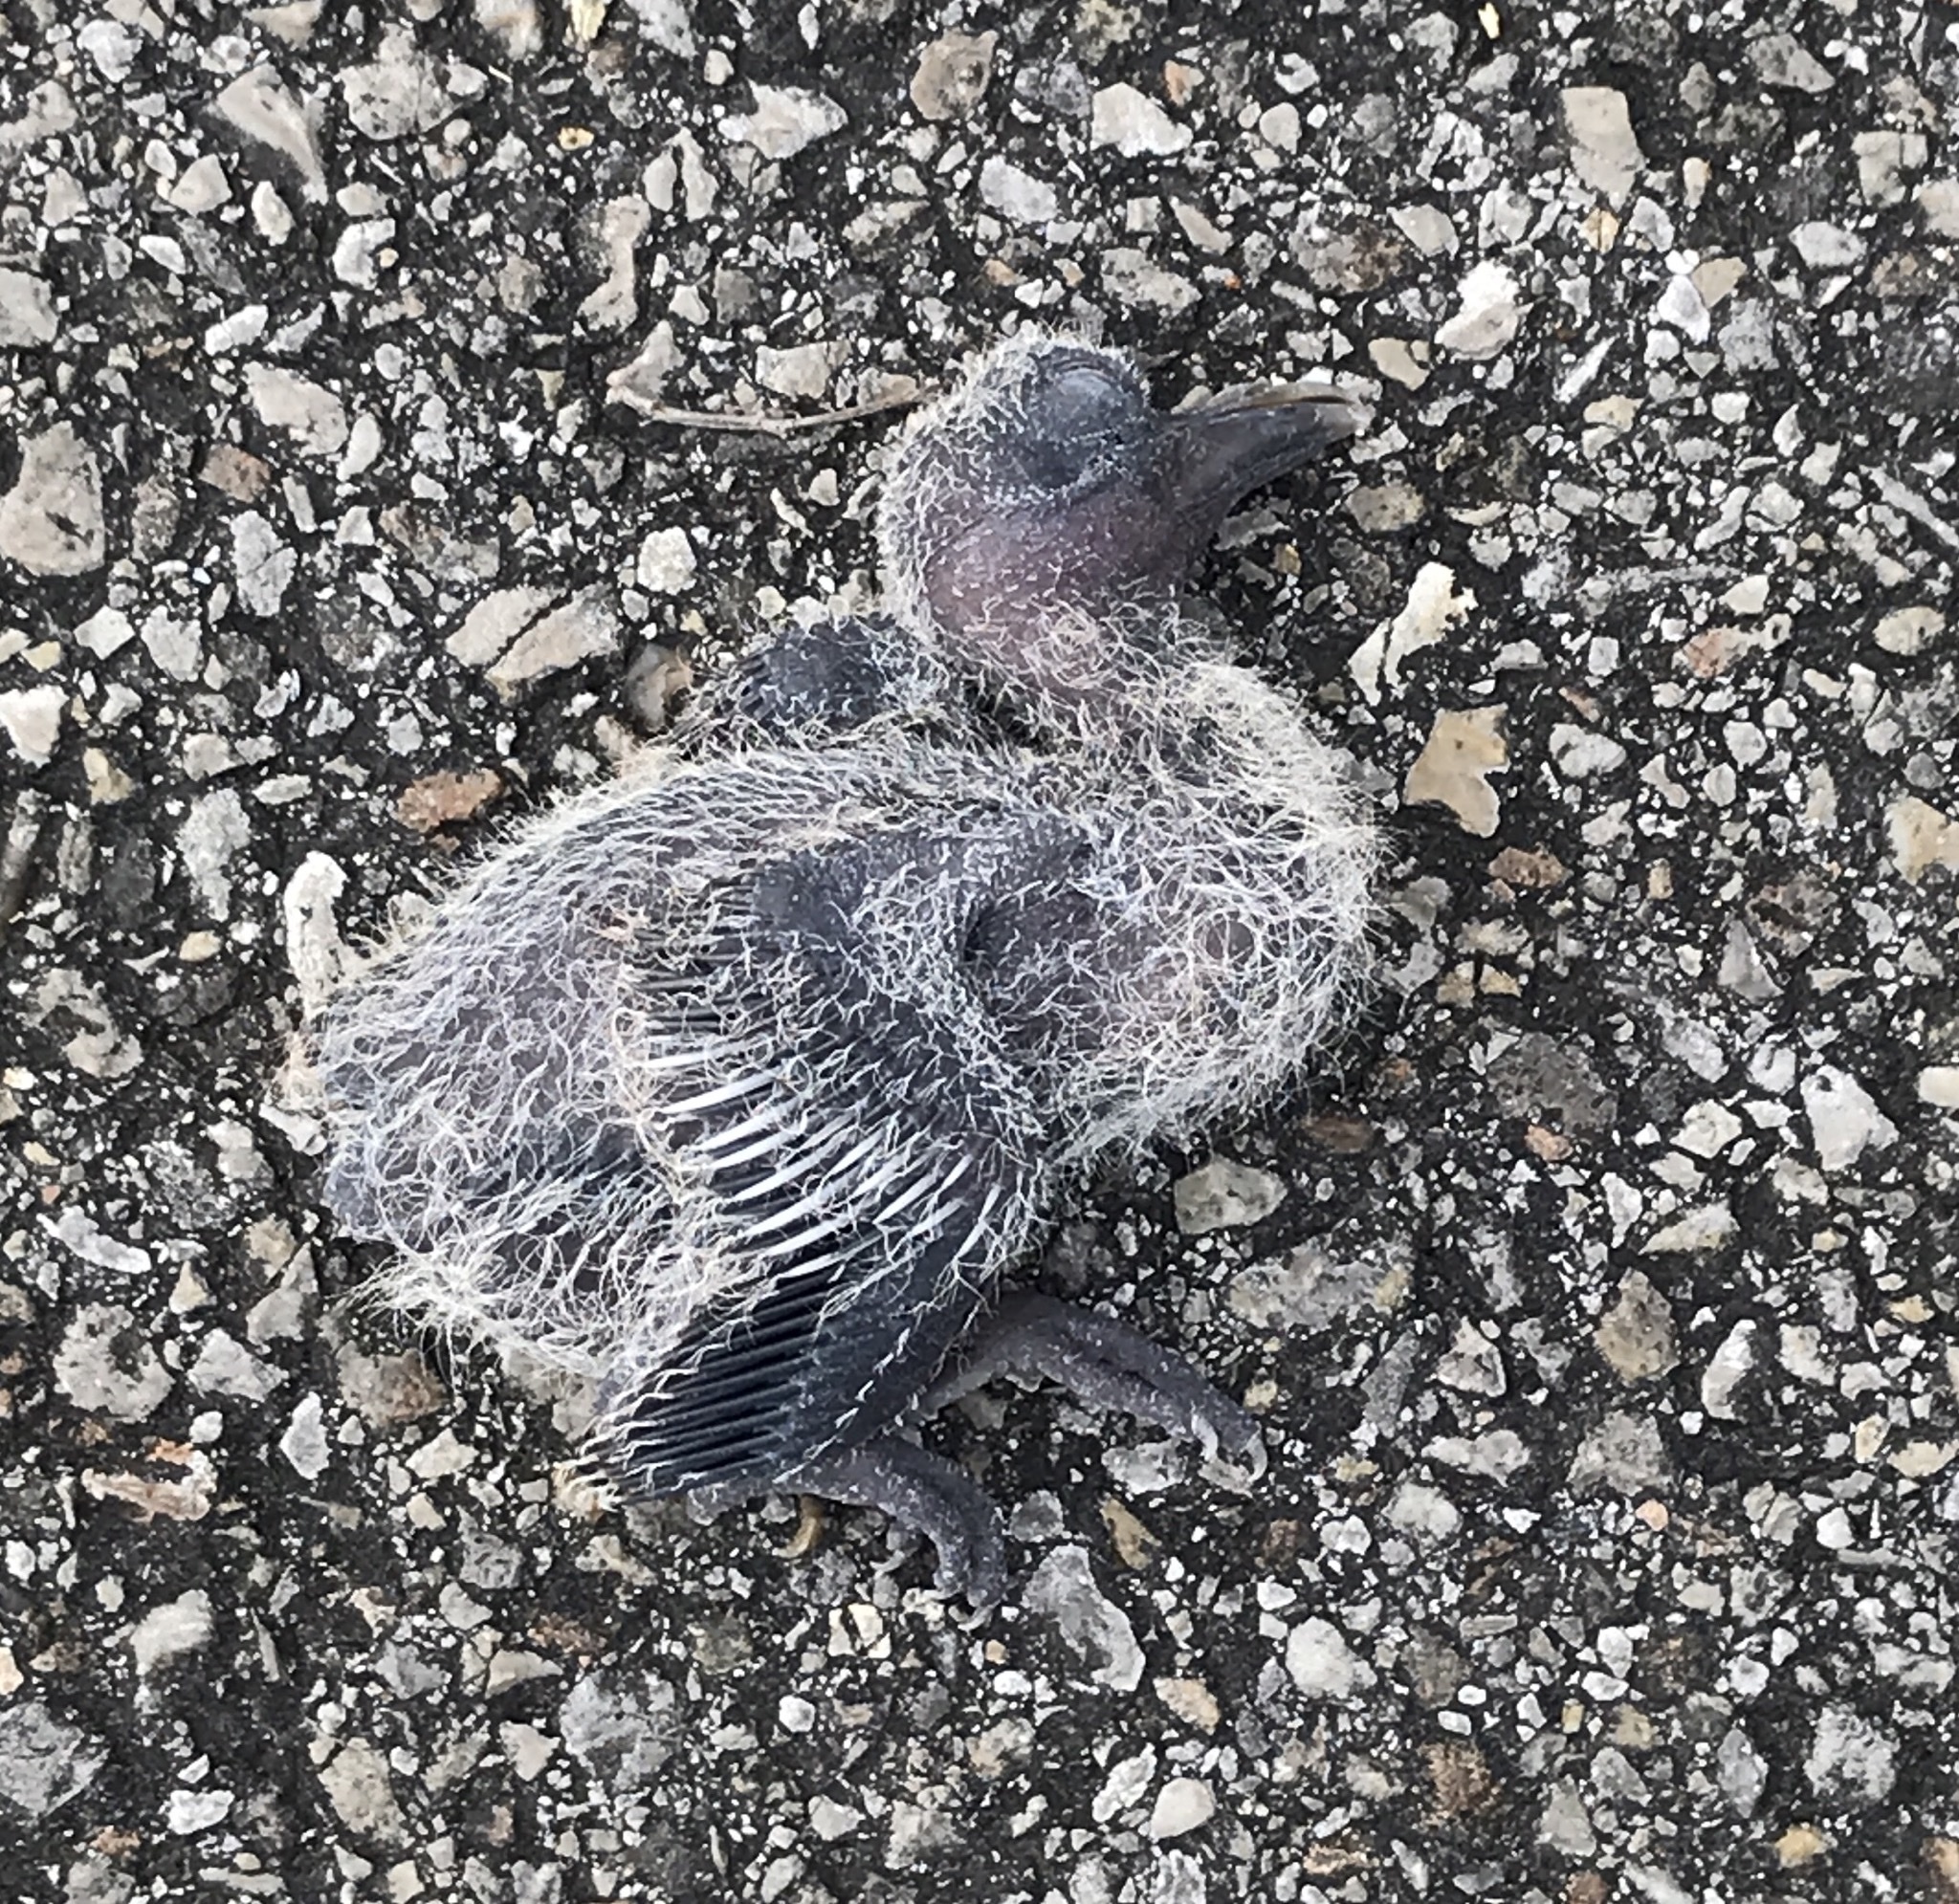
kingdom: Animalia
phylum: Chordata
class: Aves
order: Columbiformes
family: Columbidae
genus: Zenaida
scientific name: Zenaida asiatica
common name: White-winged dove
